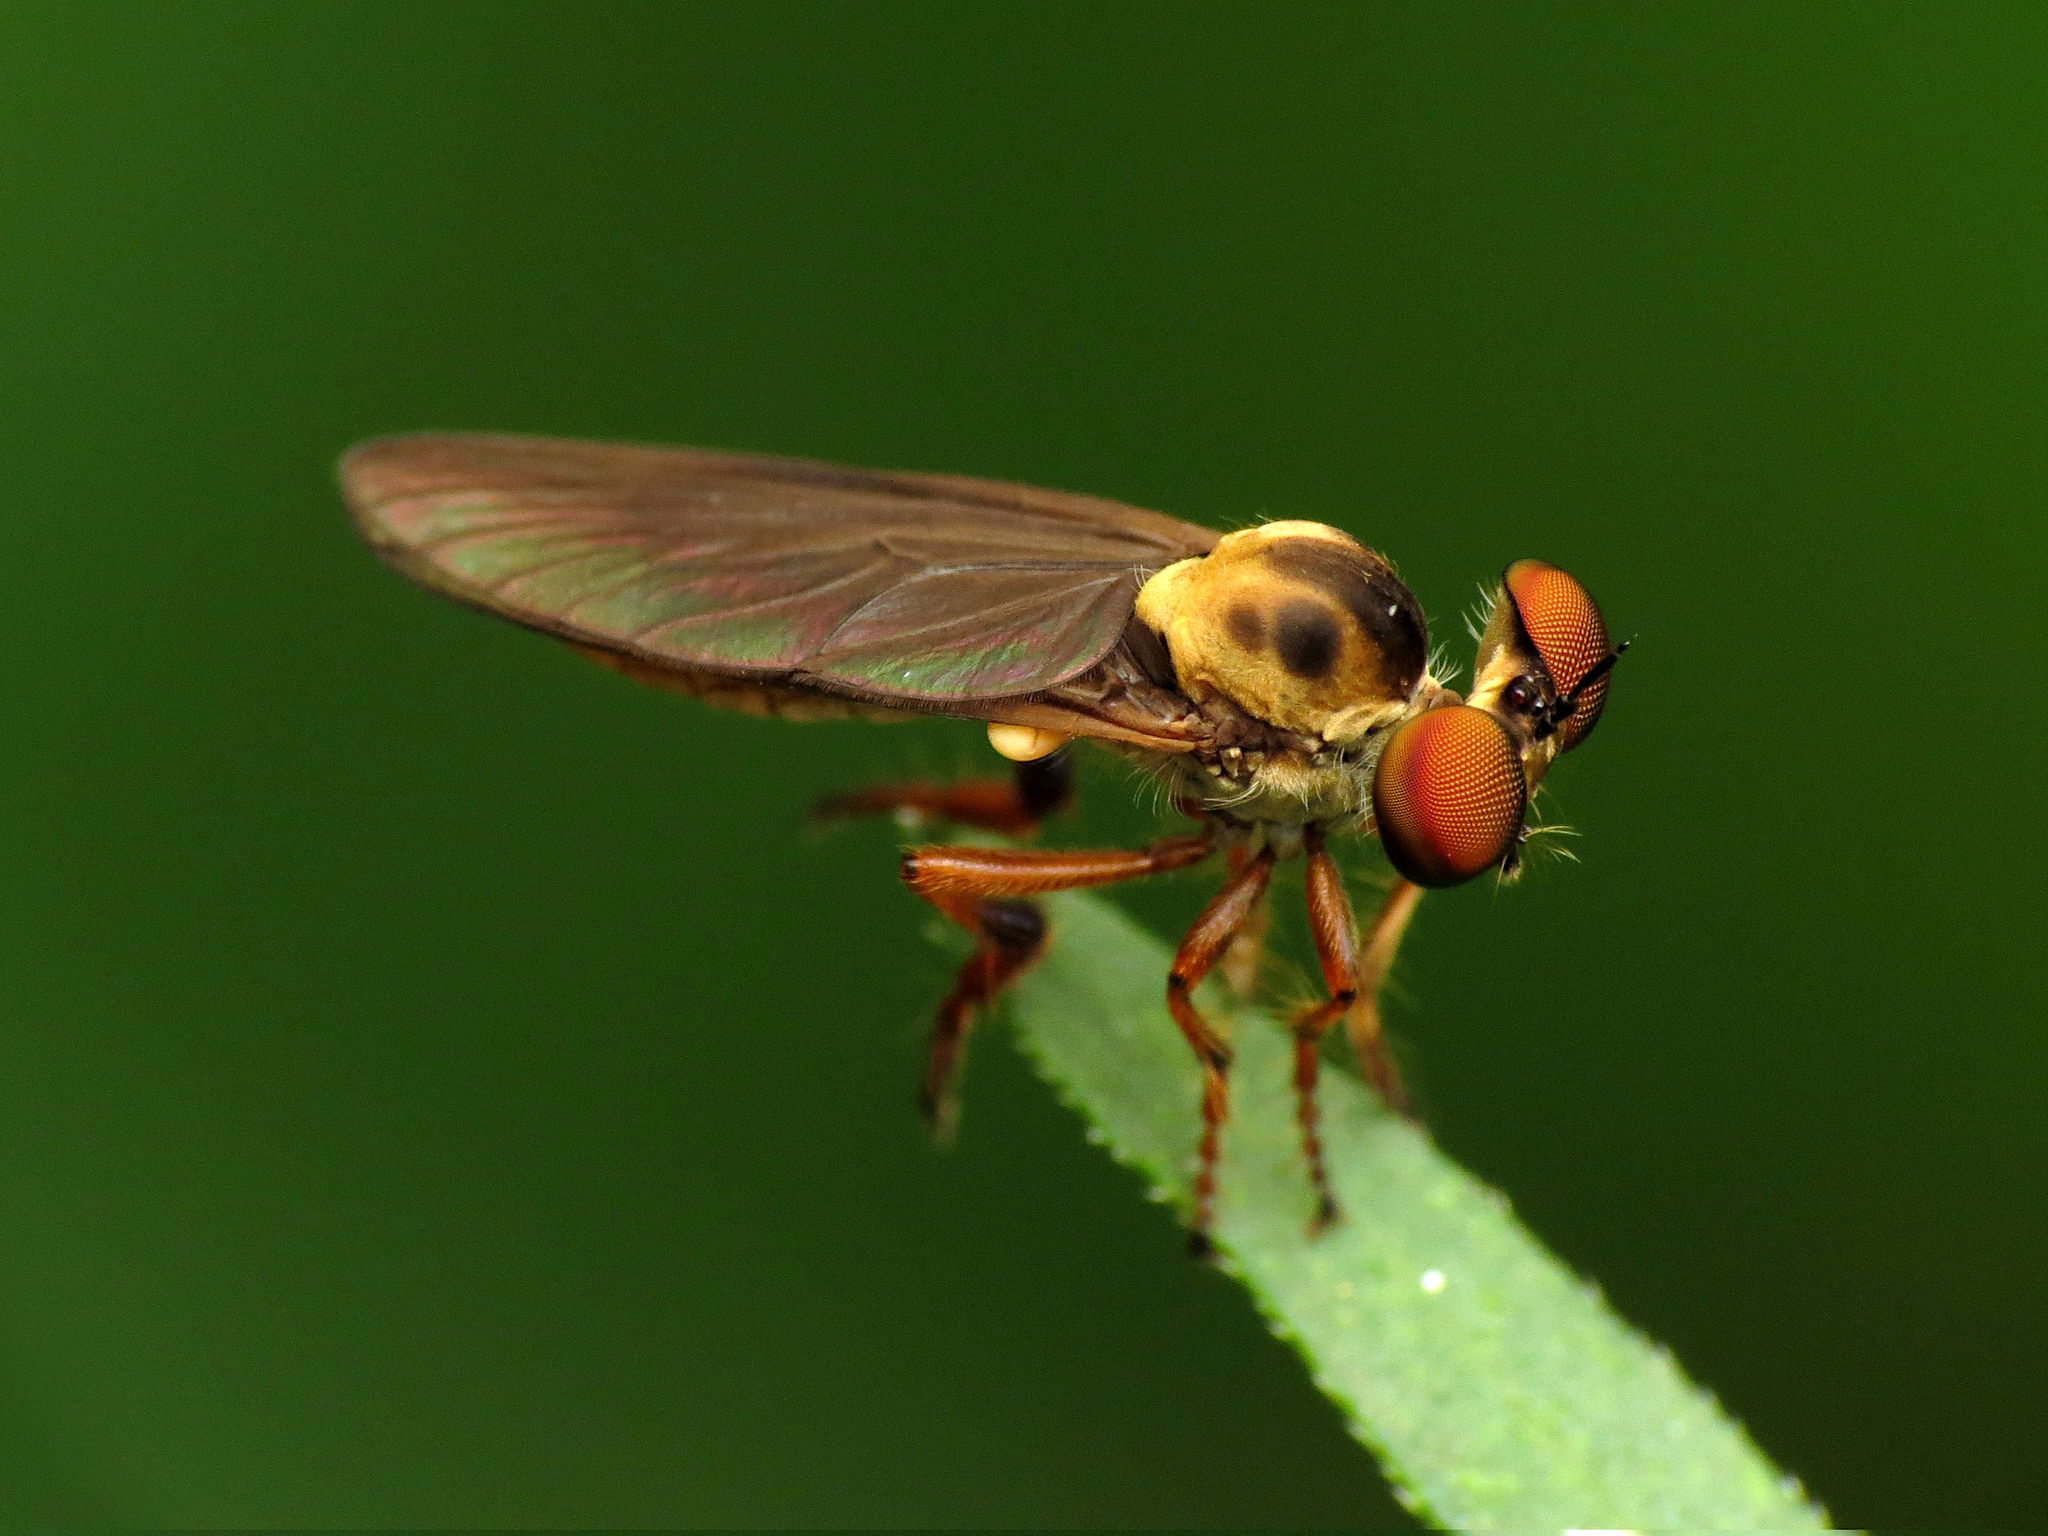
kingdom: Animalia
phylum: Arthropoda
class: Insecta
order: Diptera
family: Asilidae
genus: Holcocephala
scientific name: Holcocephala
